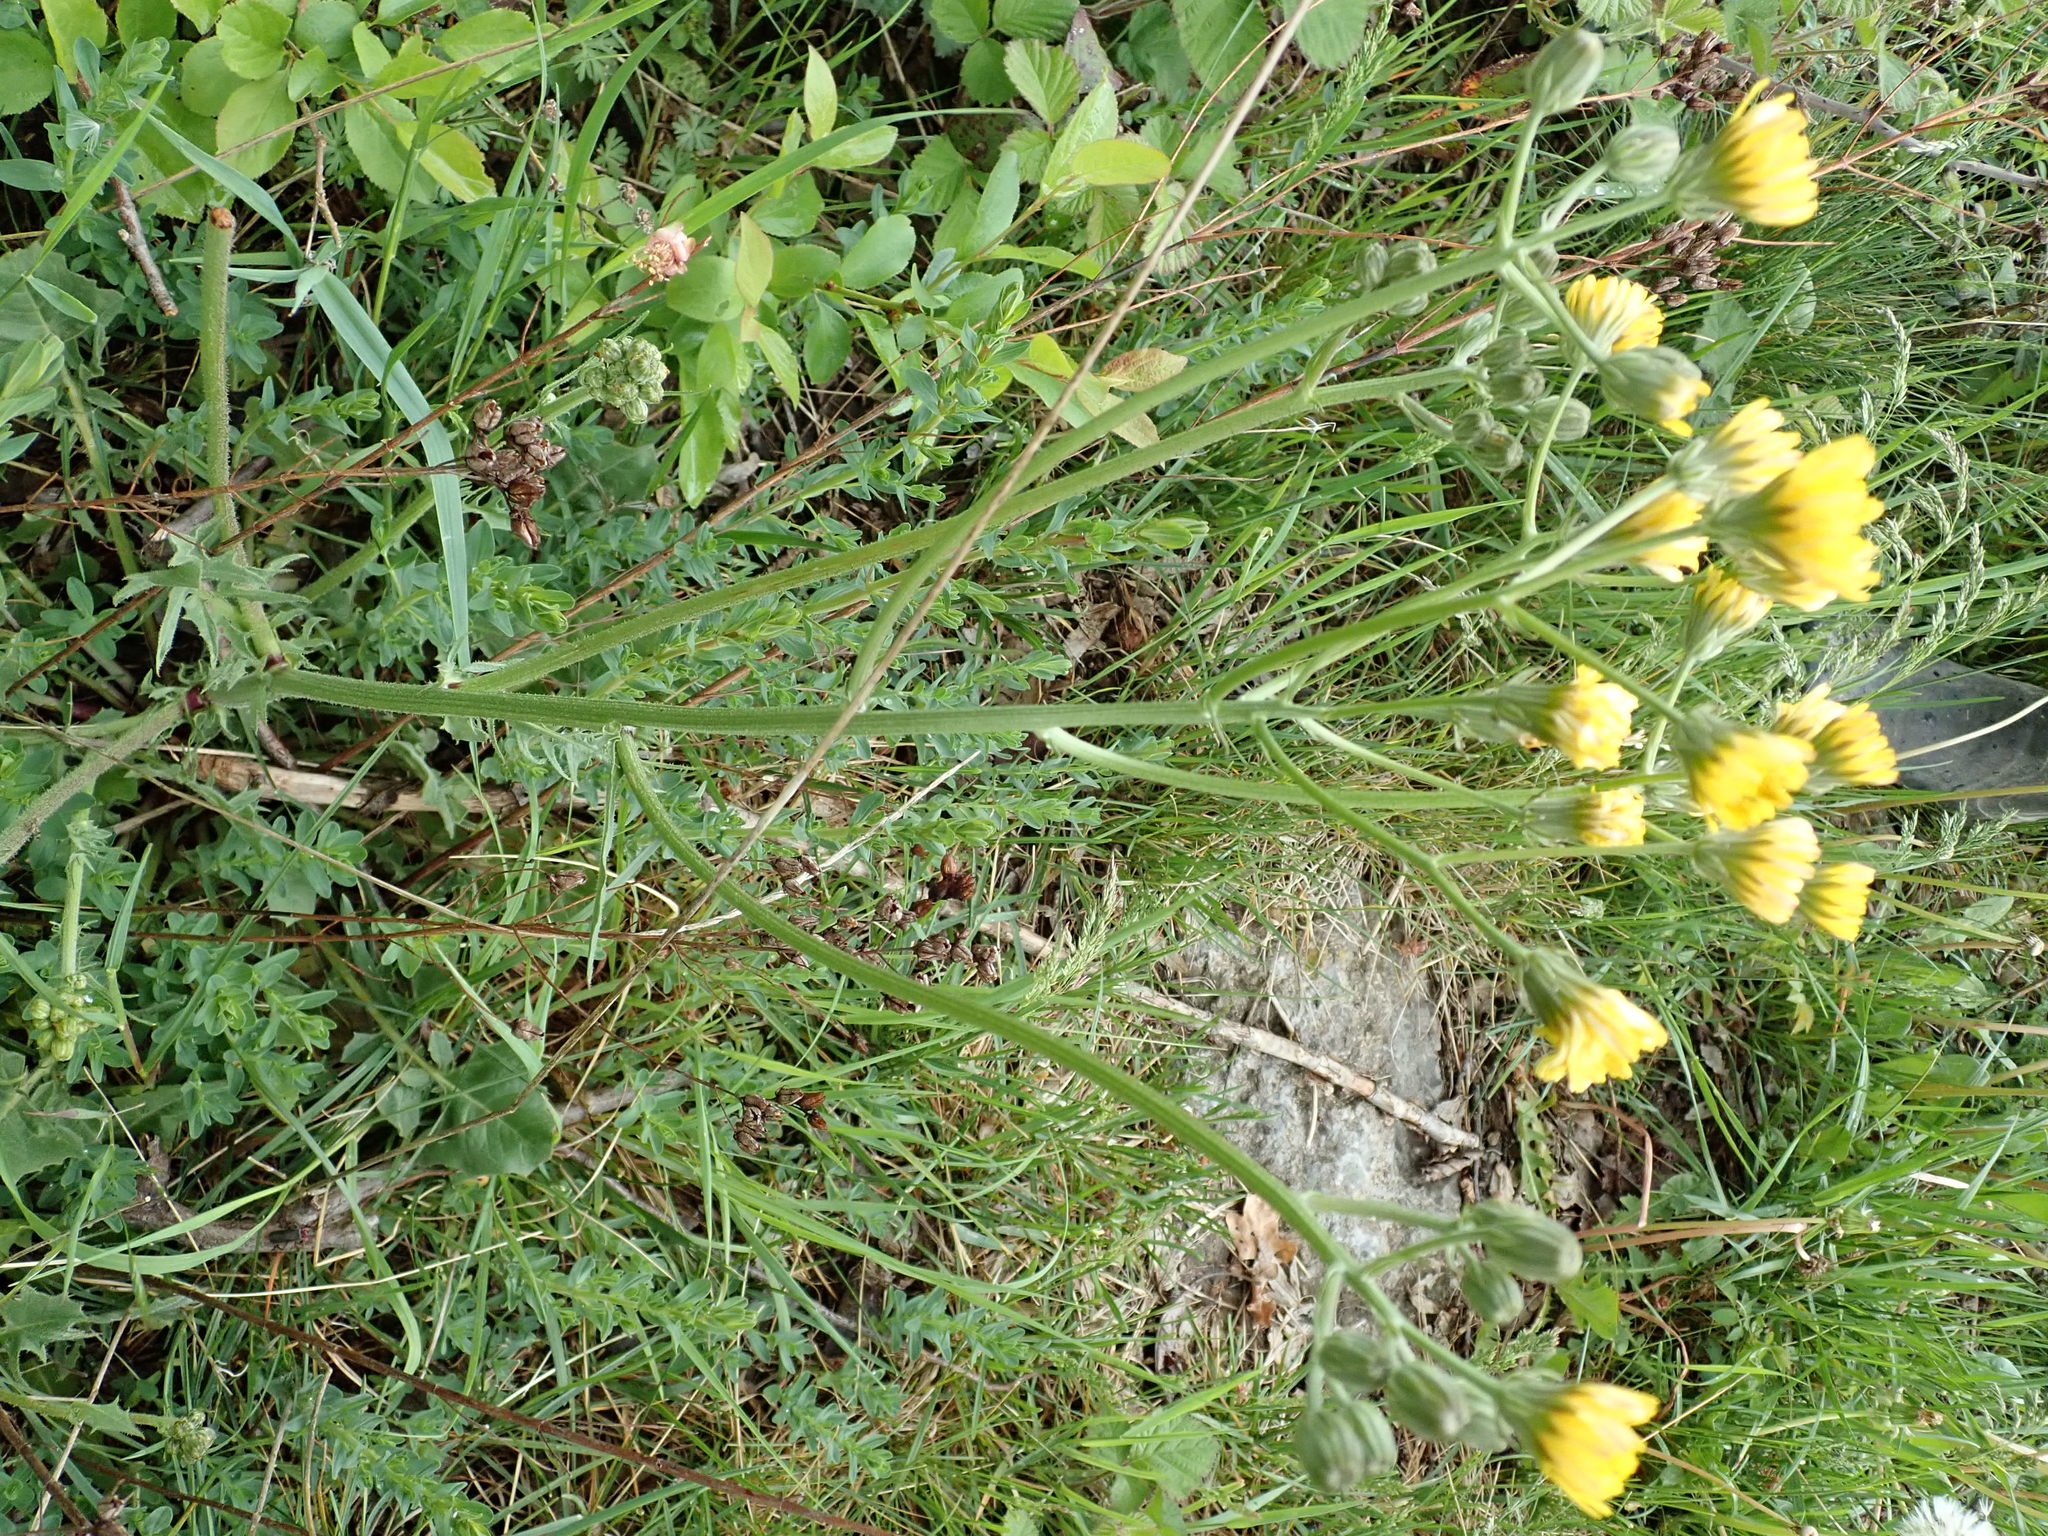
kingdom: Plantae
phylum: Tracheophyta
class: Magnoliopsida
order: Asterales
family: Asteraceae
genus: Picris
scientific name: Picris hieracioides
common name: Hawkweed oxtongue
